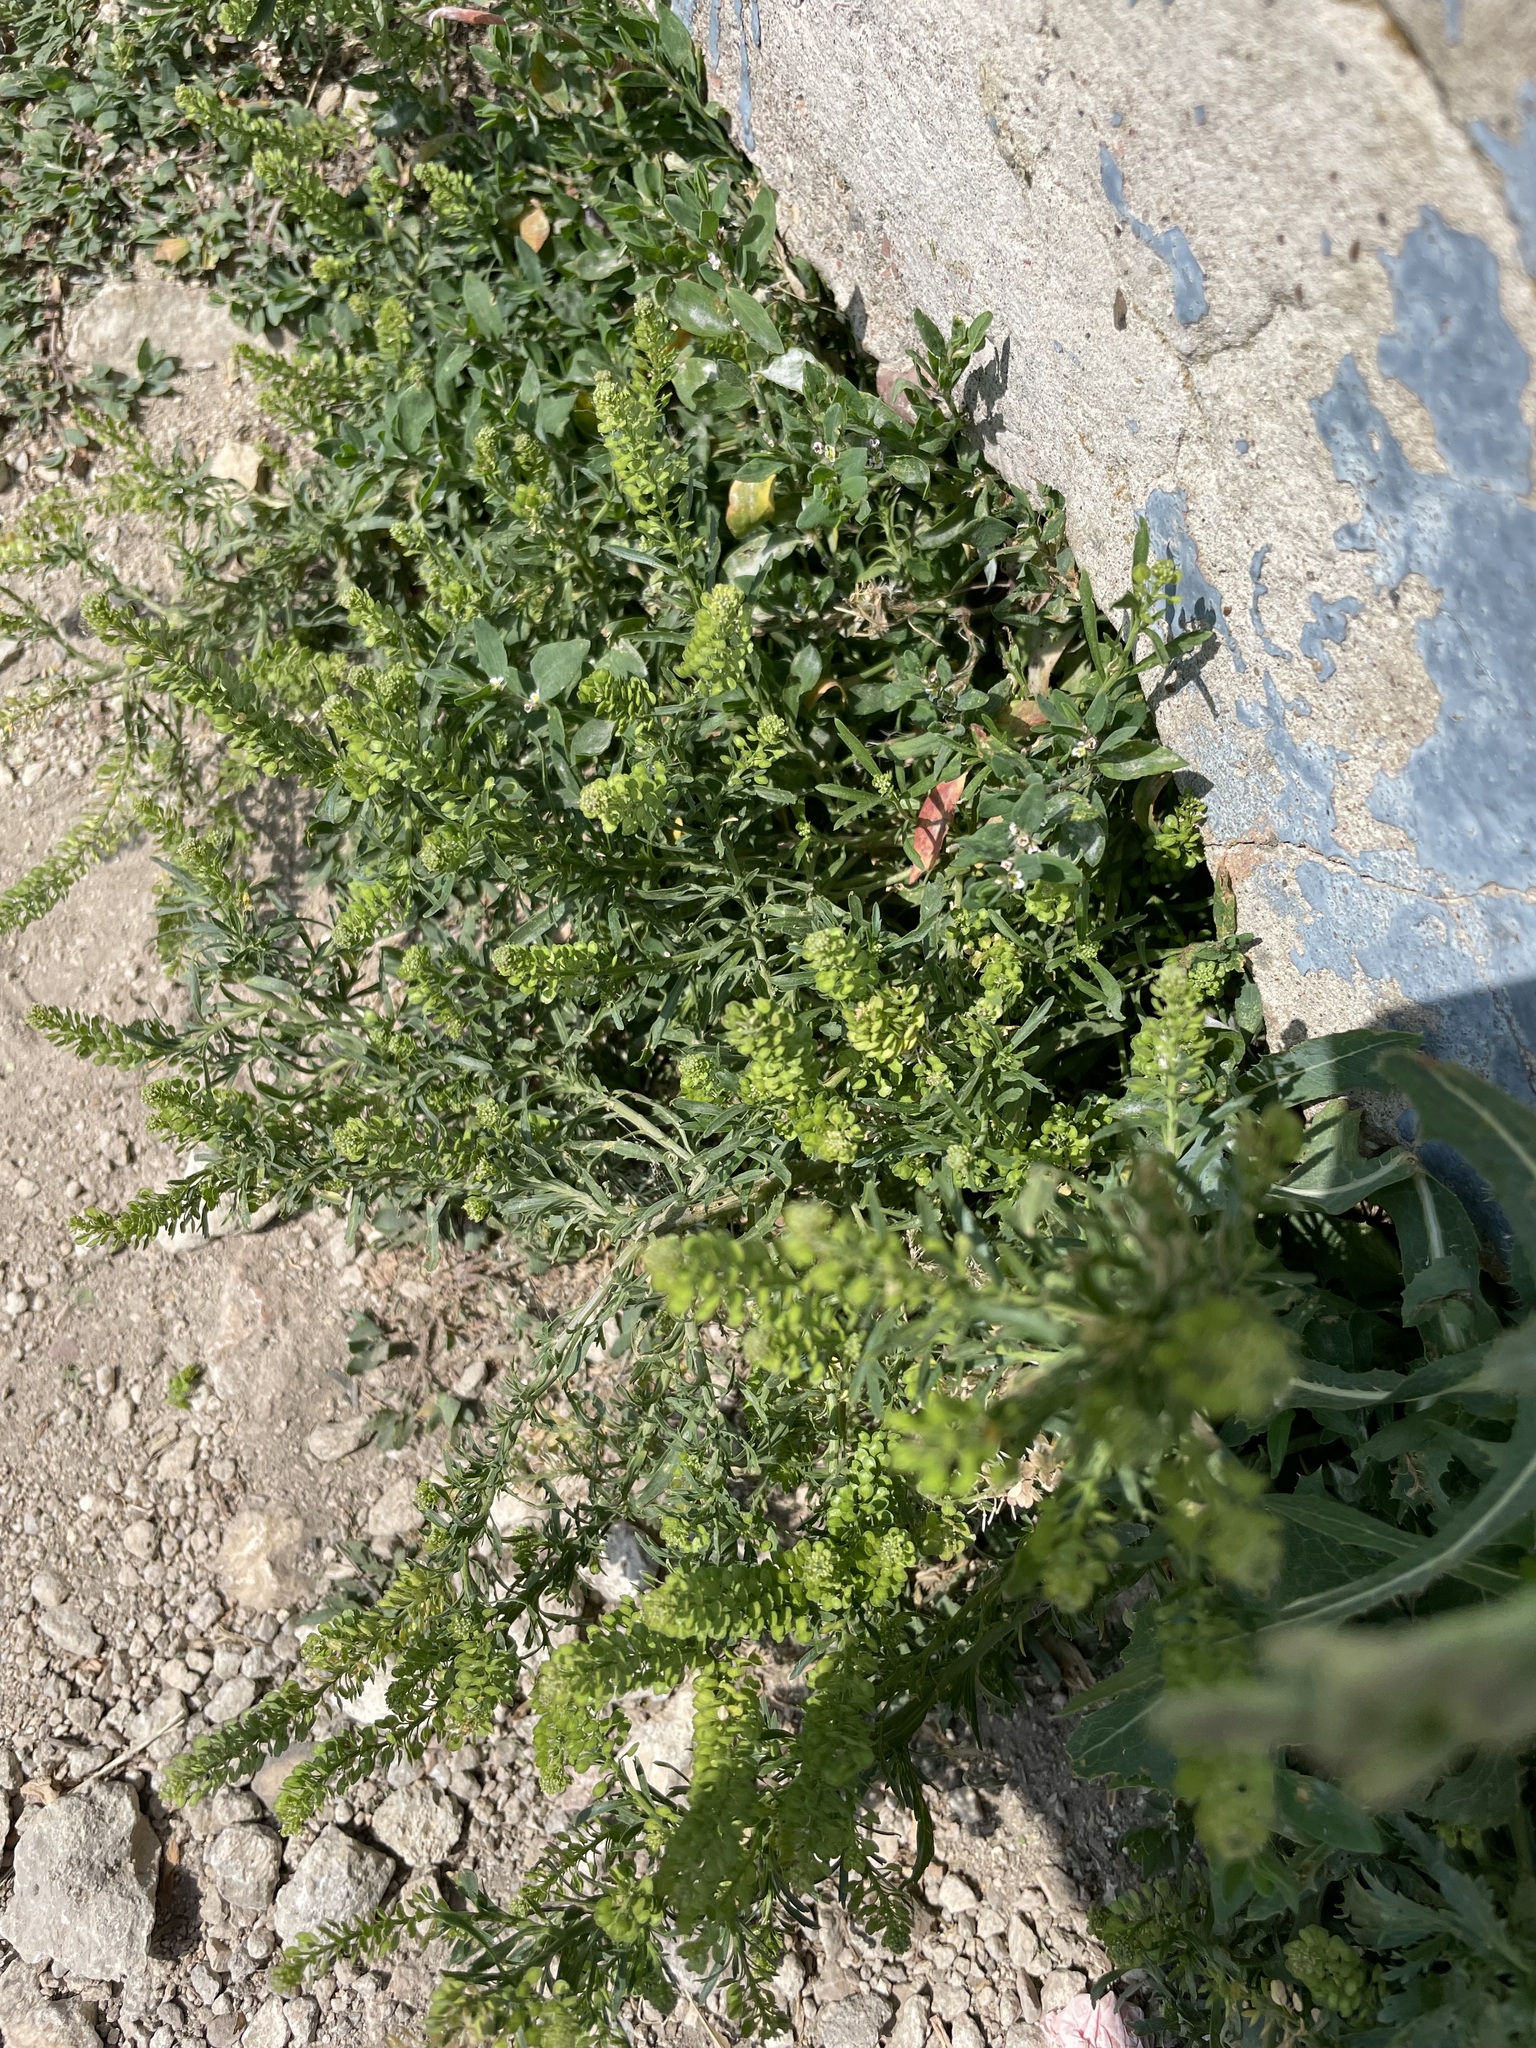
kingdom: Plantae
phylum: Tracheophyta
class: Magnoliopsida
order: Brassicales
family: Brassicaceae
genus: Lepidium
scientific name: Lepidium densiflorum
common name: Miner's pepperwort
